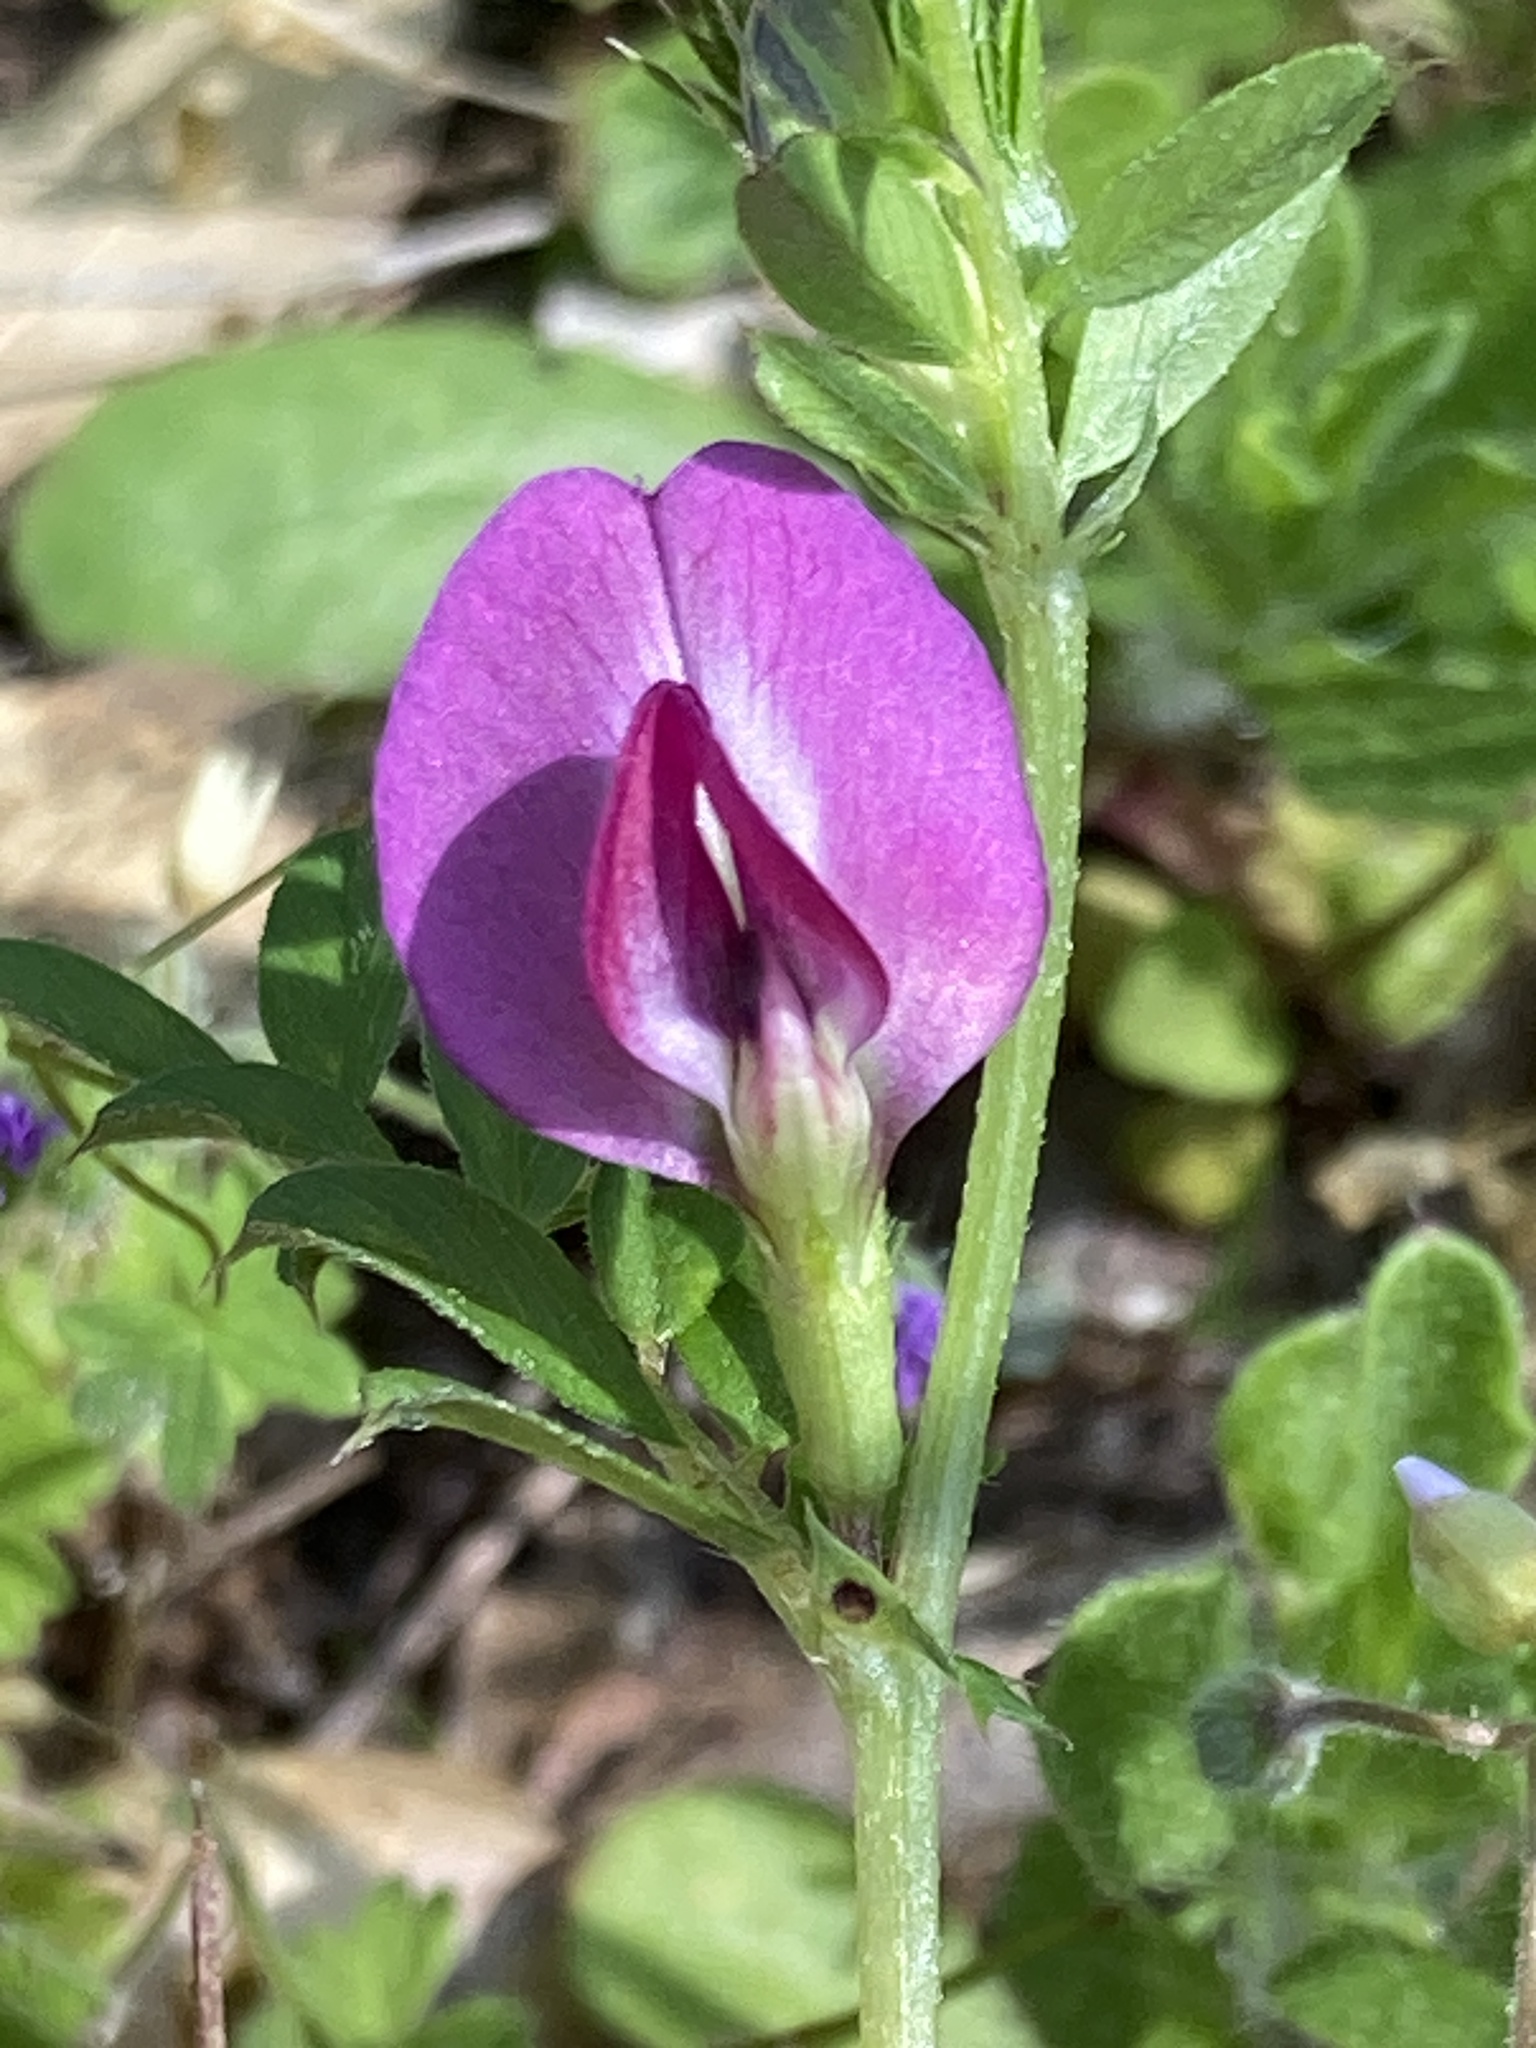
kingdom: Plantae
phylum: Tracheophyta
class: Magnoliopsida
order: Fabales
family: Fabaceae
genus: Vicia
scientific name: Vicia sativa
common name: Garden vetch
